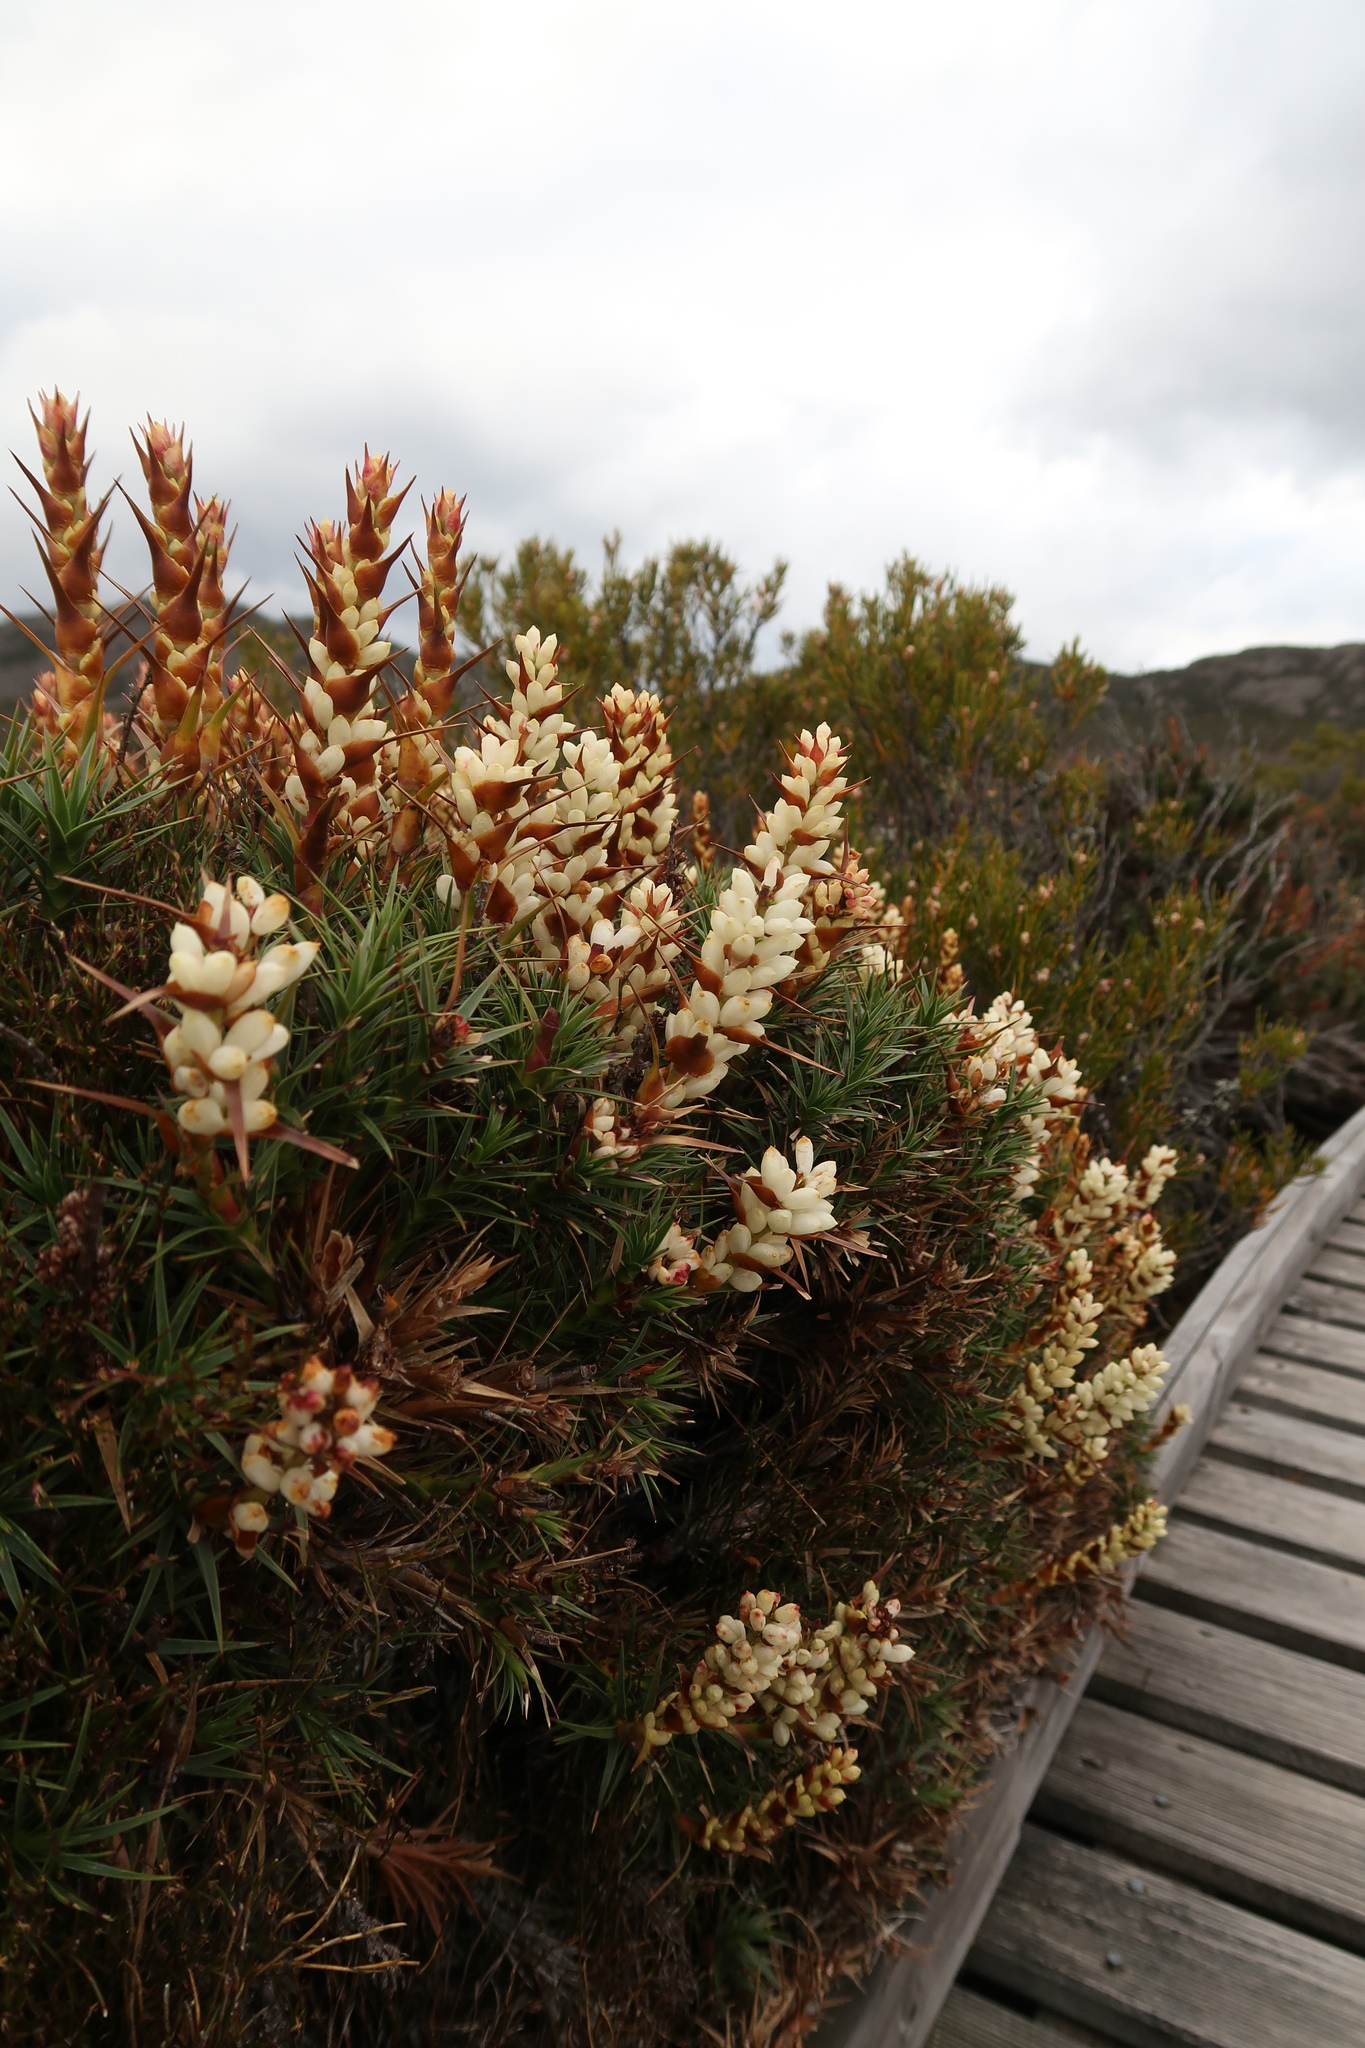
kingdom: Plantae
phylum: Tracheophyta
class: Magnoliopsida
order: Ericales
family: Ericaceae
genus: Dracophyllum
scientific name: Dracophyllum persistentifolium
